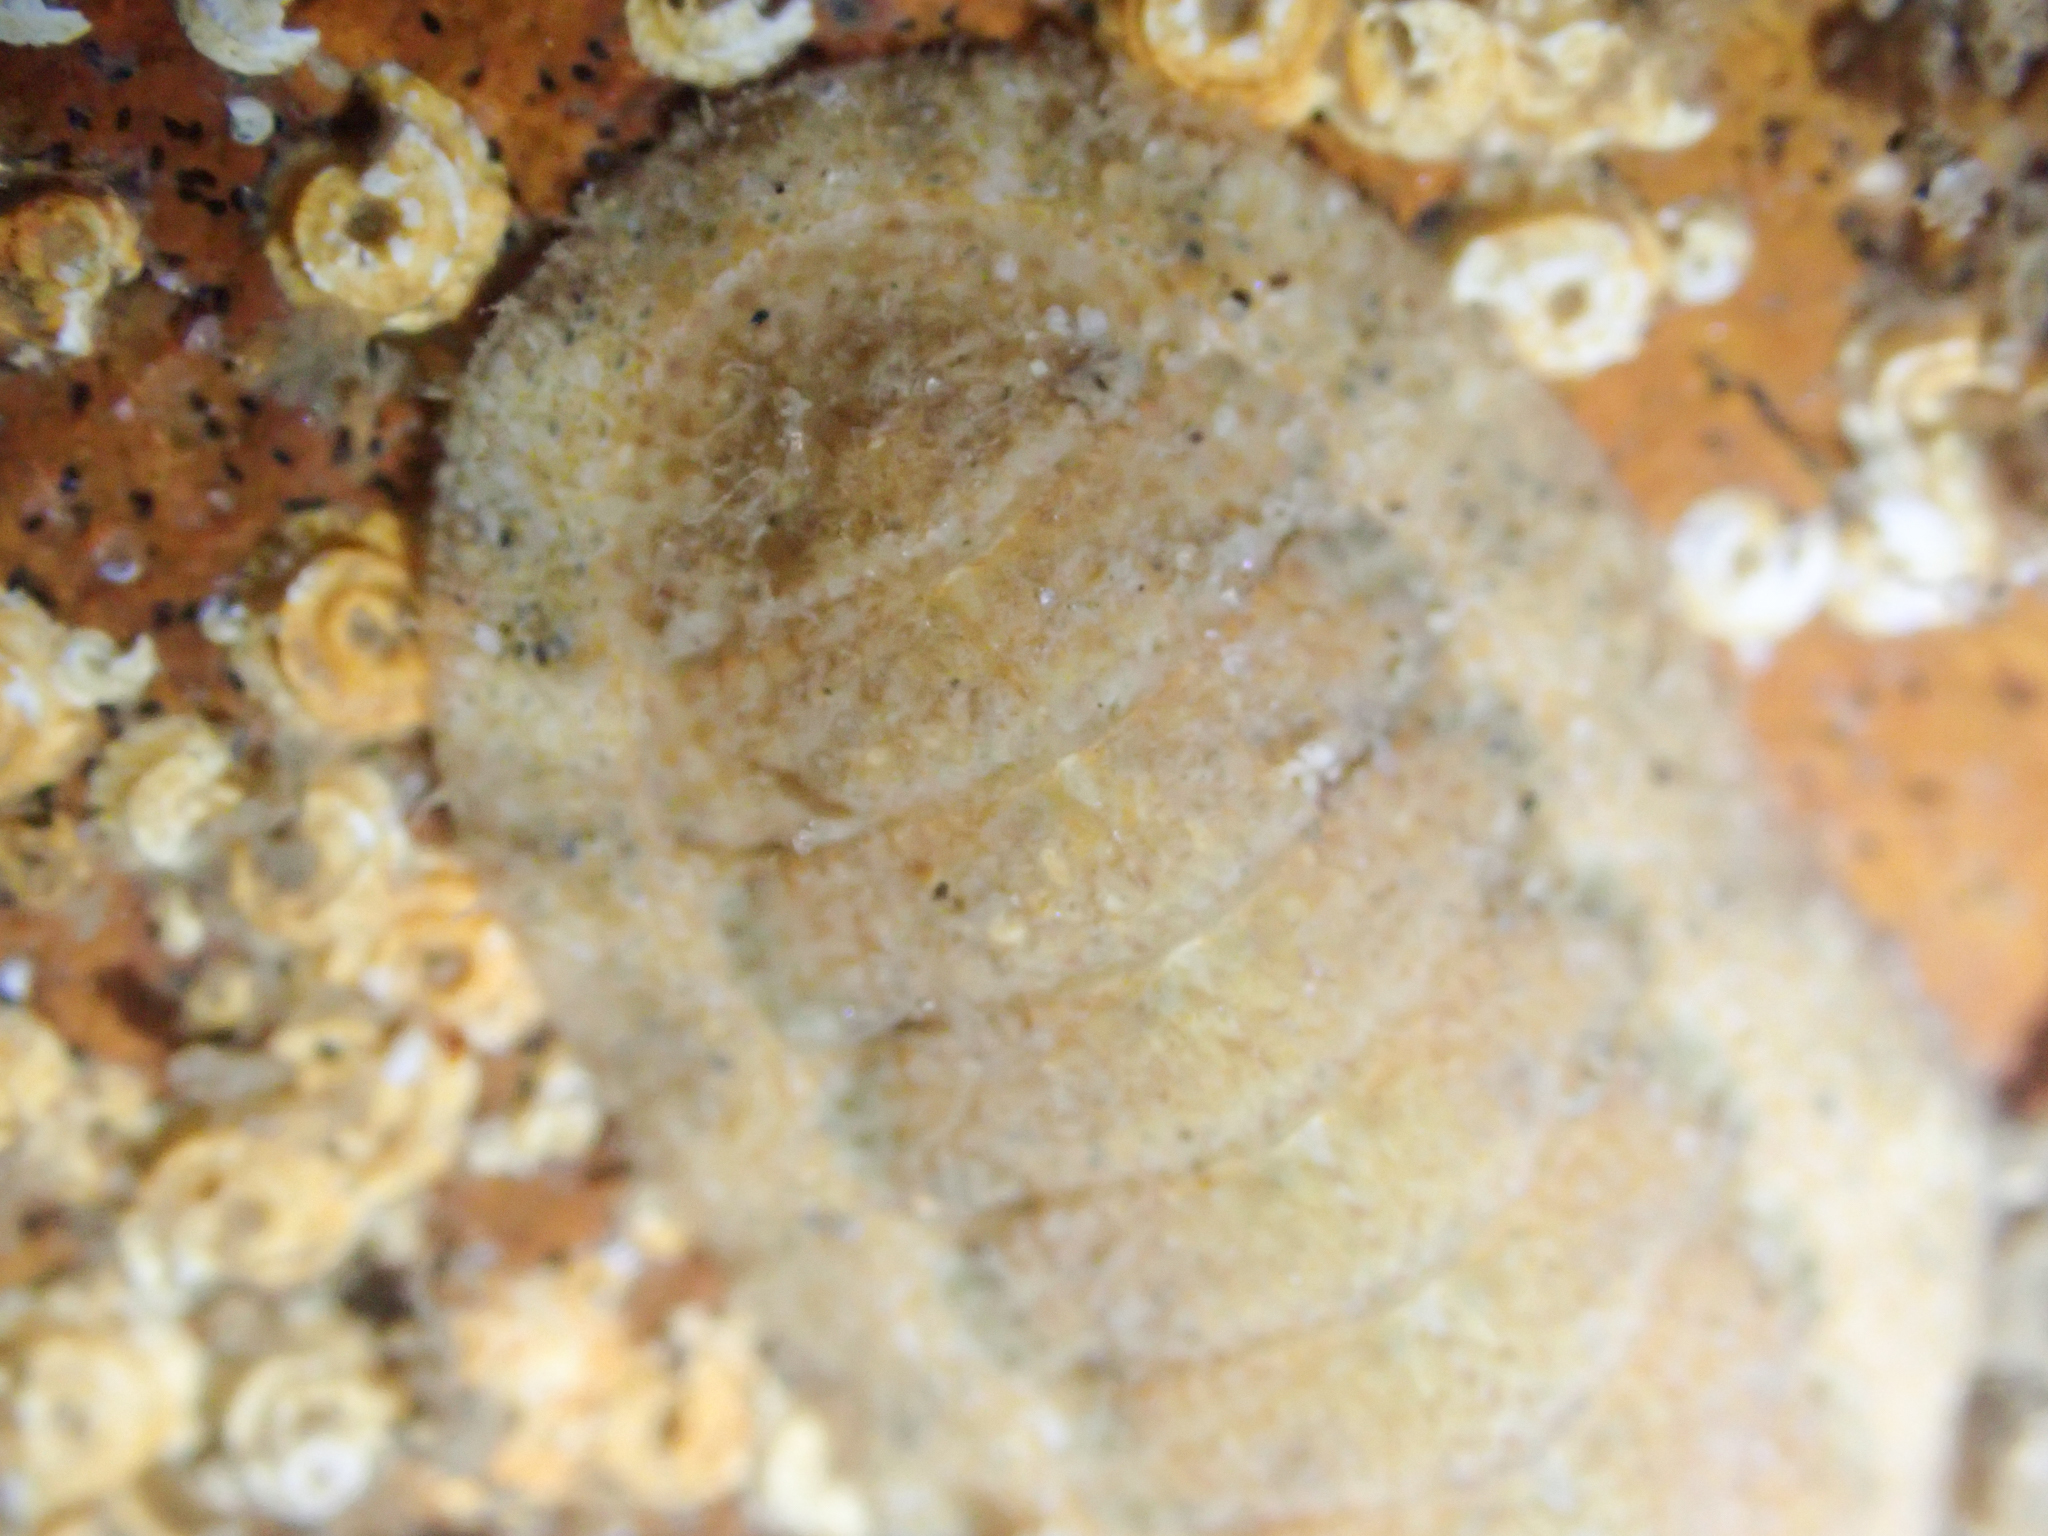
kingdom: Animalia
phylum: Mollusca
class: Polyplacophora
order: Chitonida
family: Ischnochitonidae
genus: Lepidozona
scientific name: Lepidozona pectinulata
